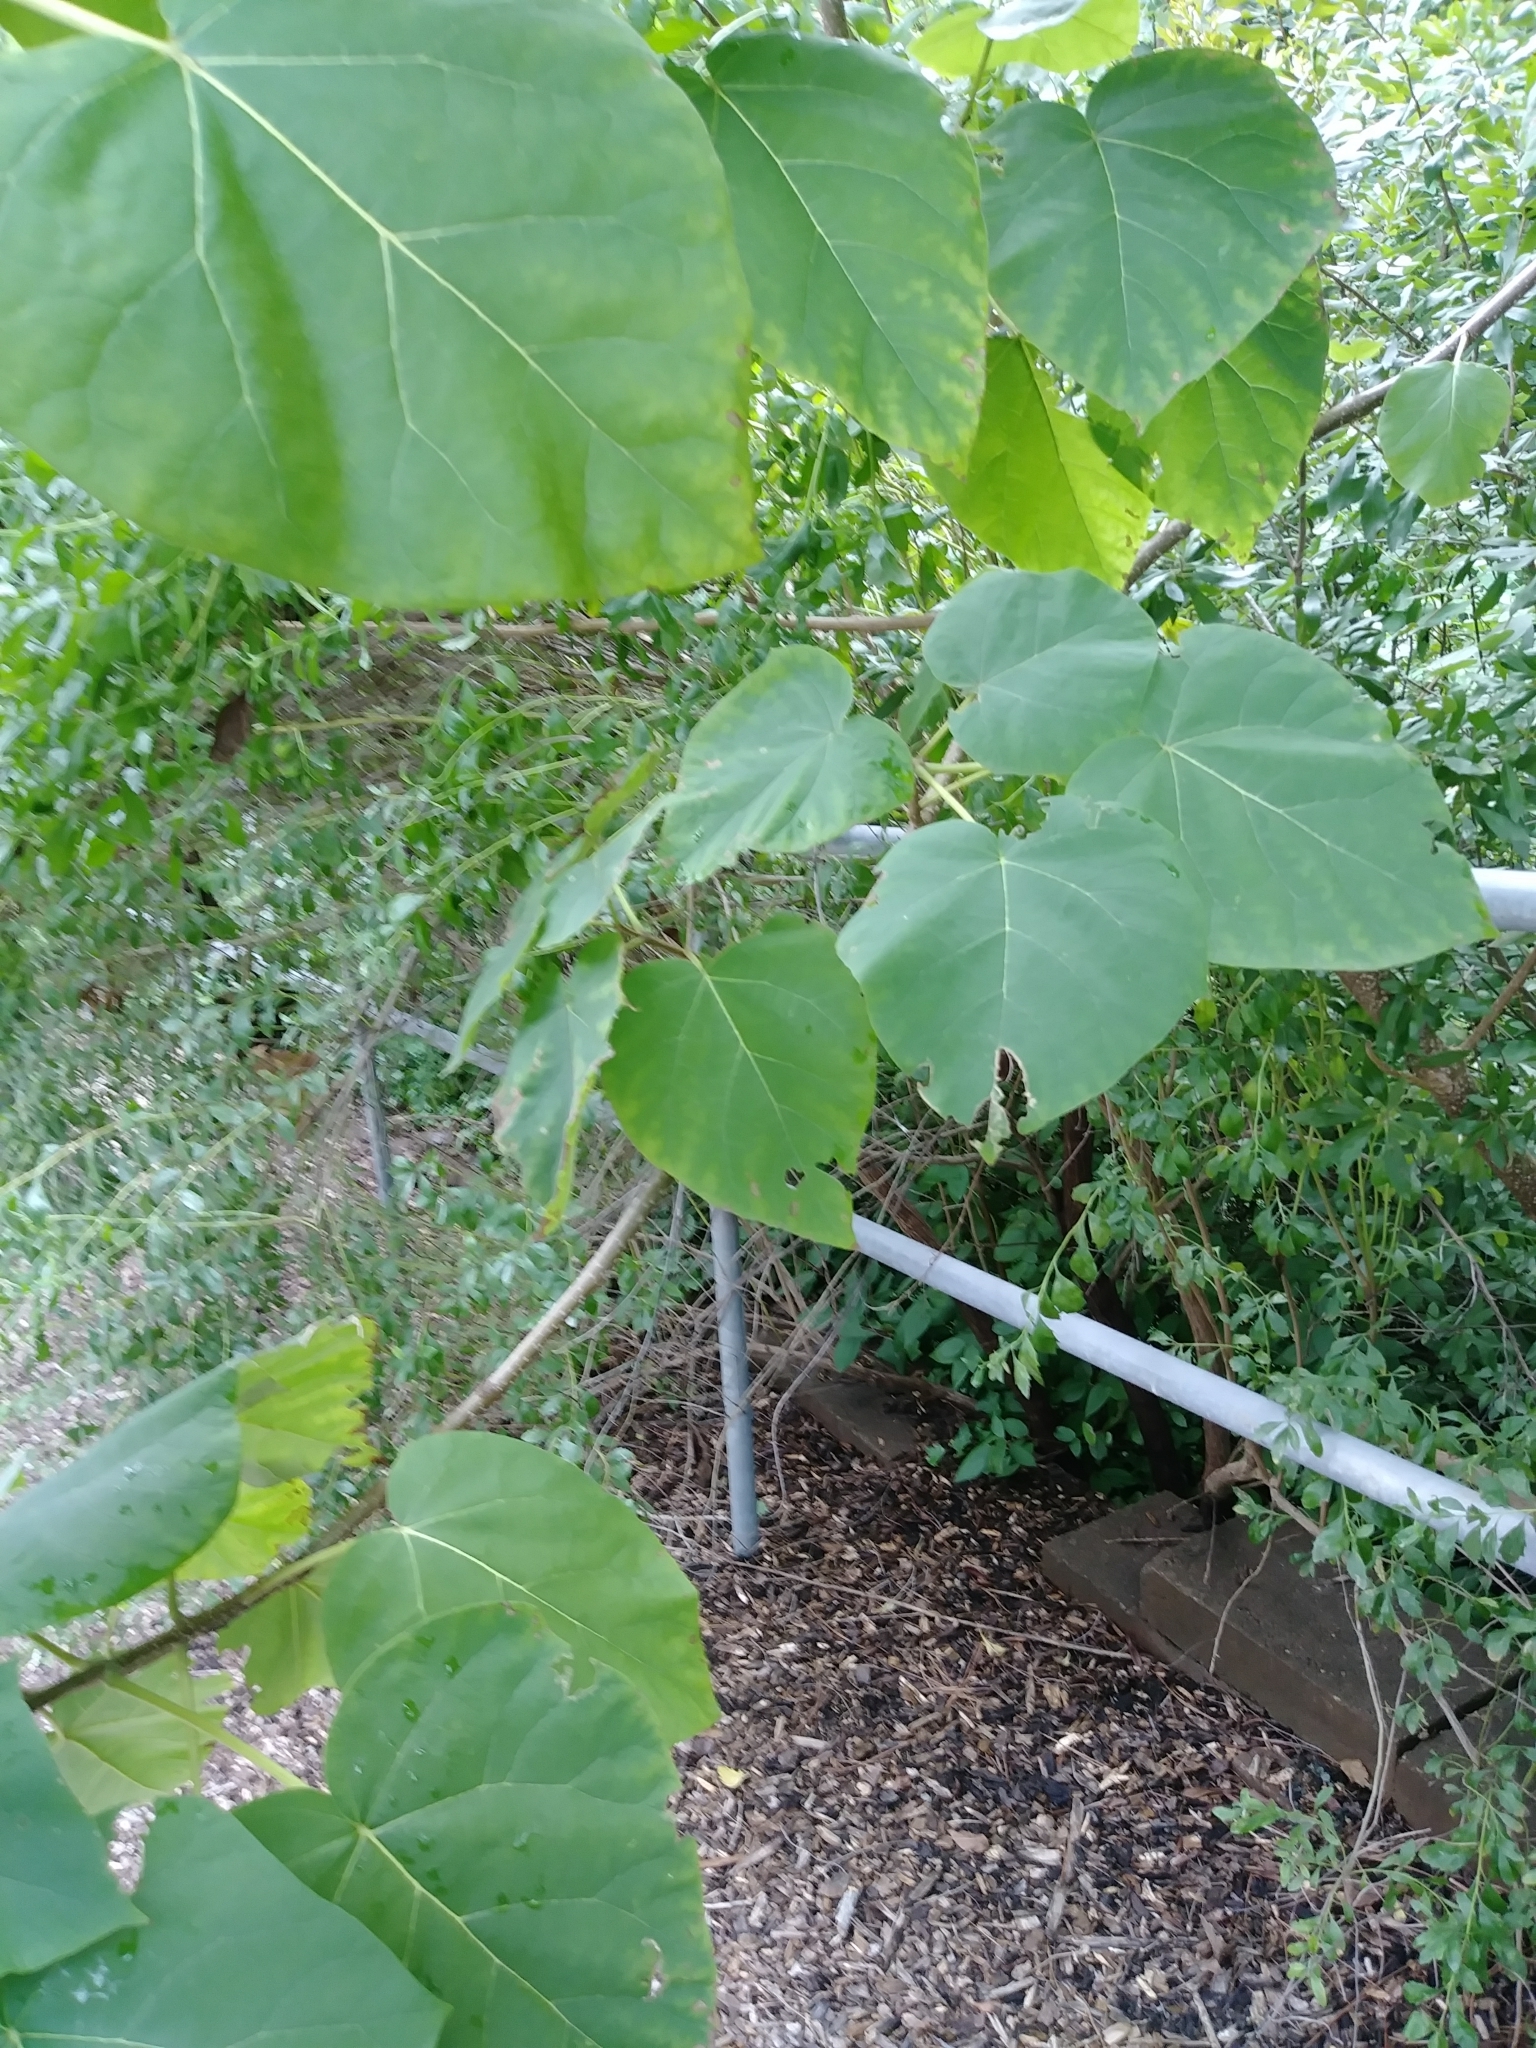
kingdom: Plantae
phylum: Tracheophyta
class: Magnoliopsida
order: Lamiales
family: Paulowniaceae
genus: Paulownia
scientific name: Paulownia tomentosa
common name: Foxglove-tree
